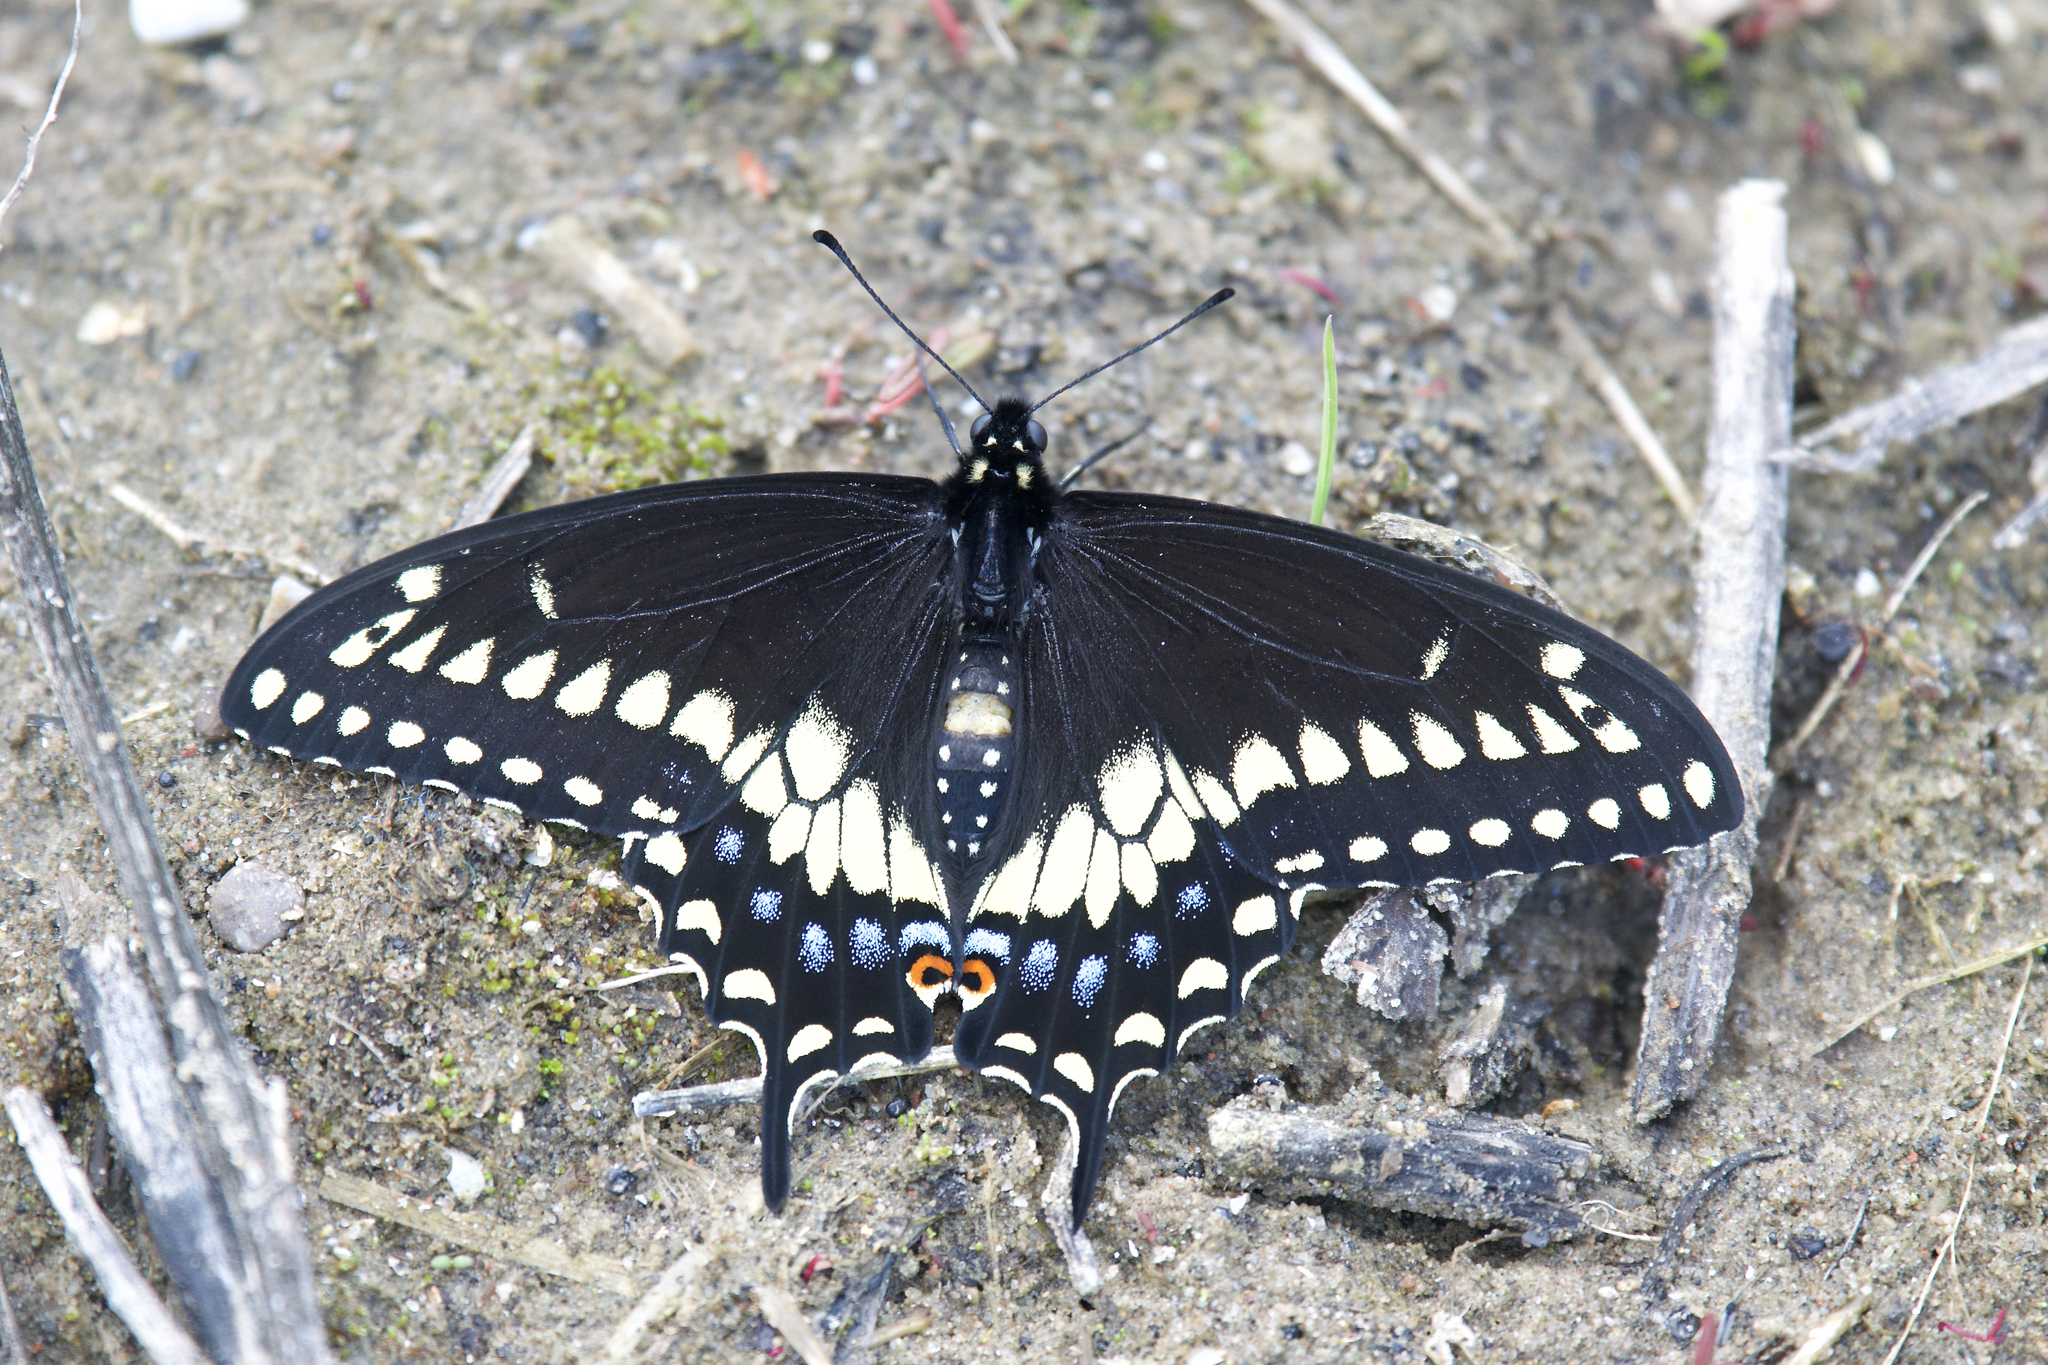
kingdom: Animalia
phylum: Arthropoda
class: Insecta
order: Lepidoptera
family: Papilionidae
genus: Papilio
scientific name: Papilio polyxenes
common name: Black swallowtail
